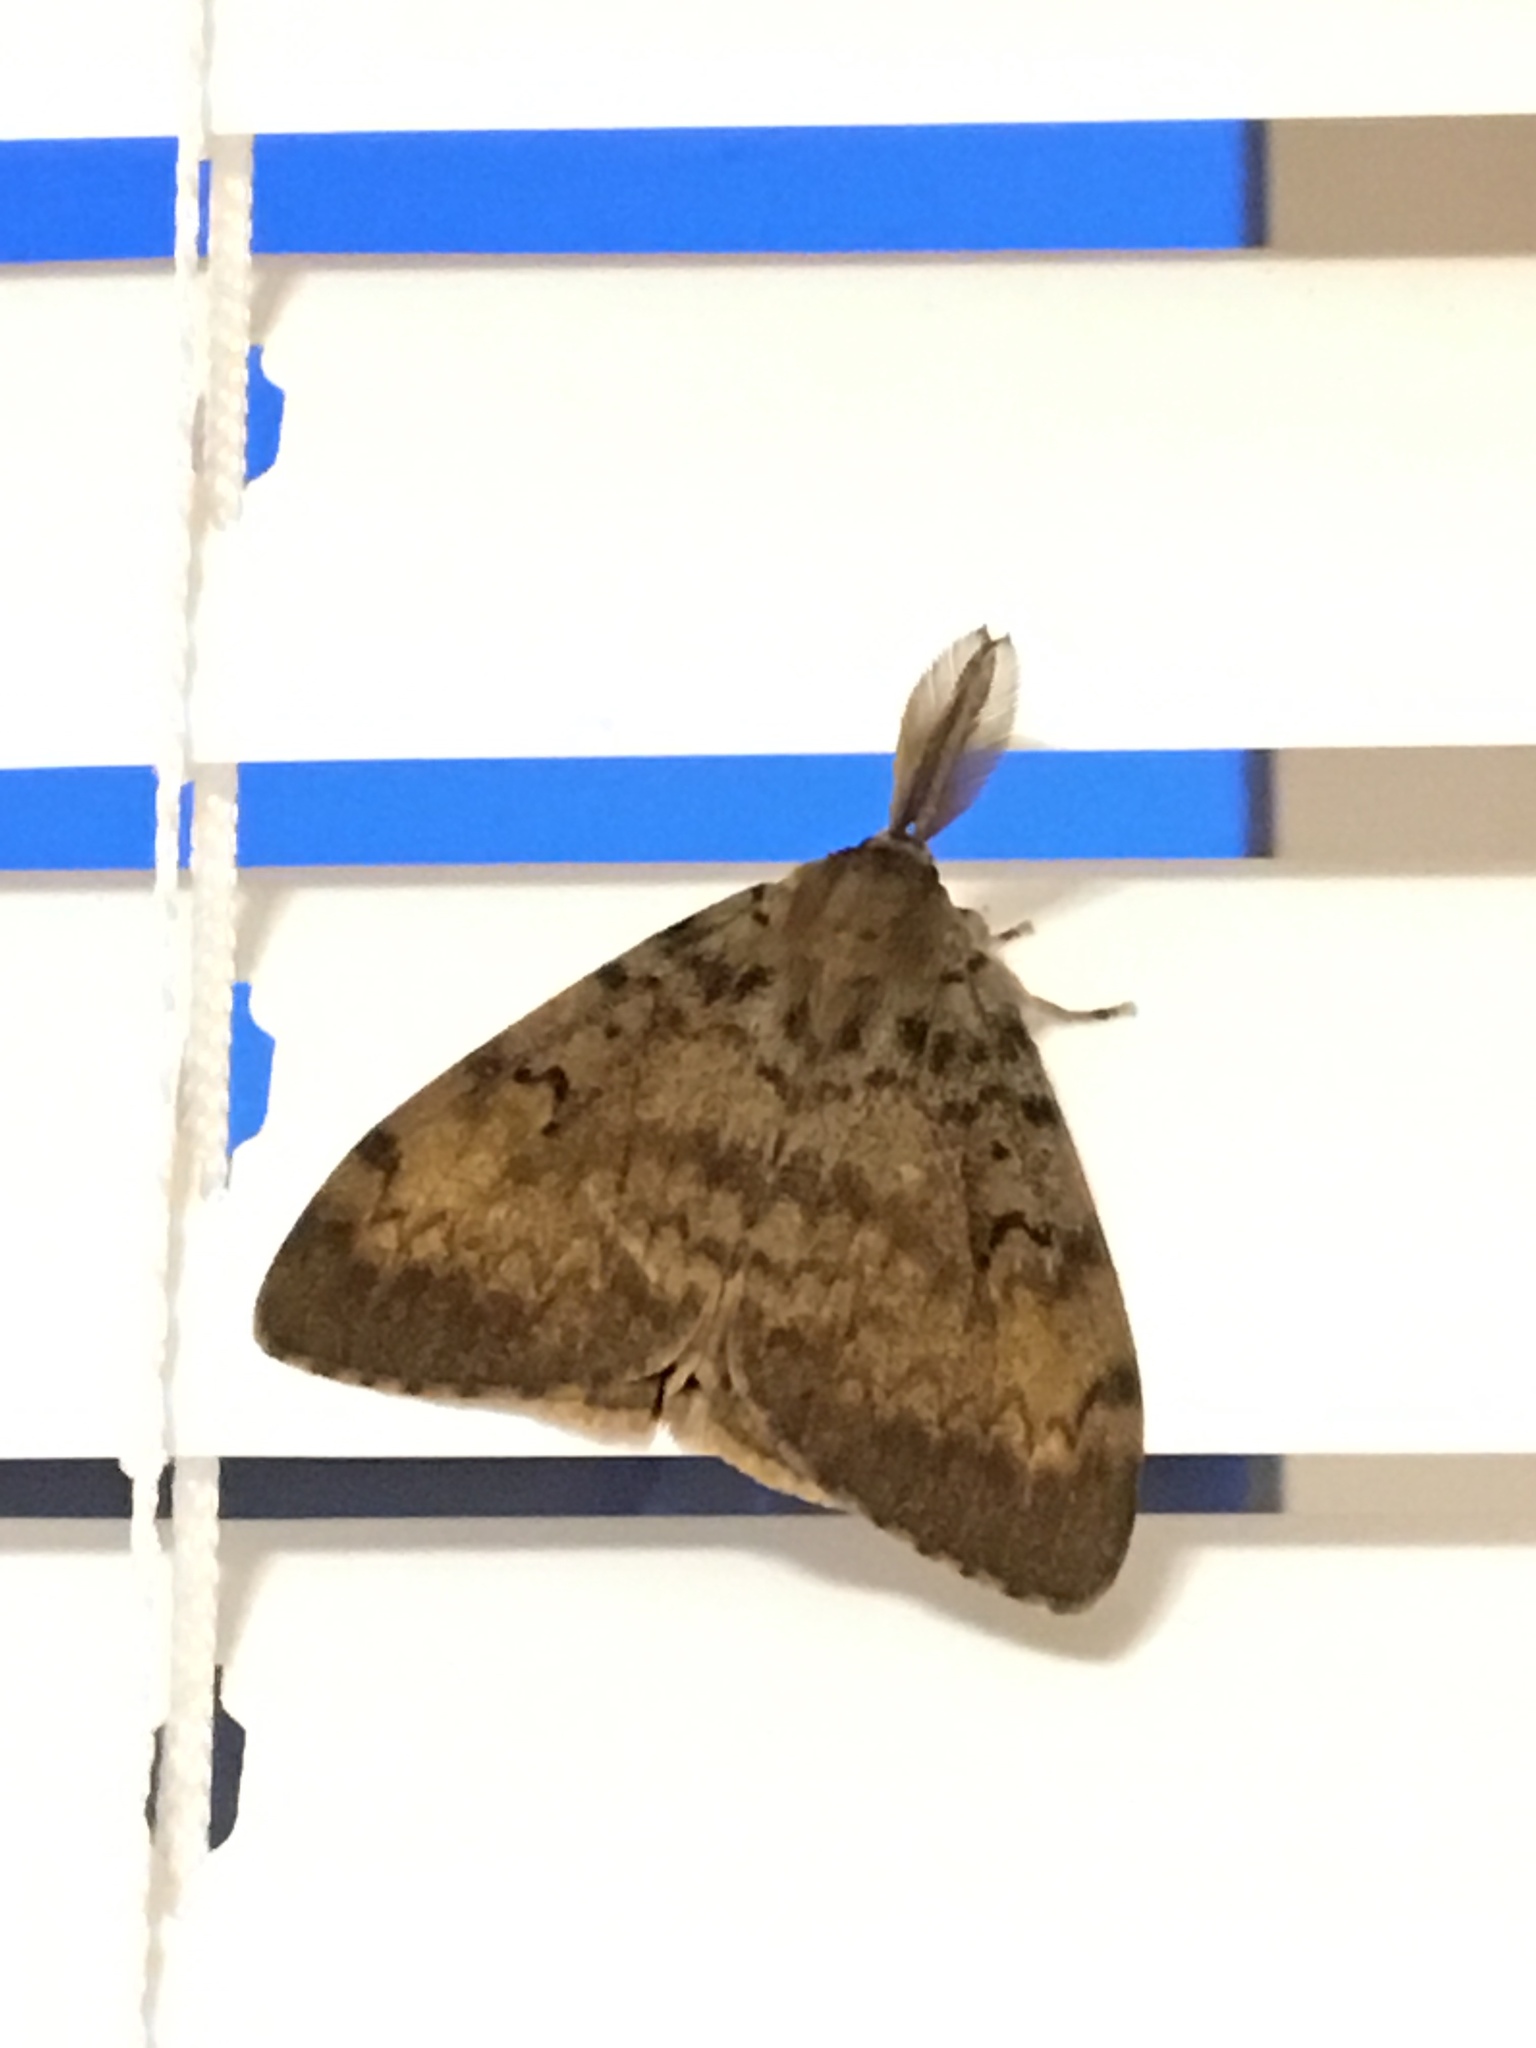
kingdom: Animalia
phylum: Arthropoda
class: Insecta
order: Lepidoptera
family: Erebidae
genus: Lymantria
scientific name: Lymantria dispar
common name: Gypsy moth
